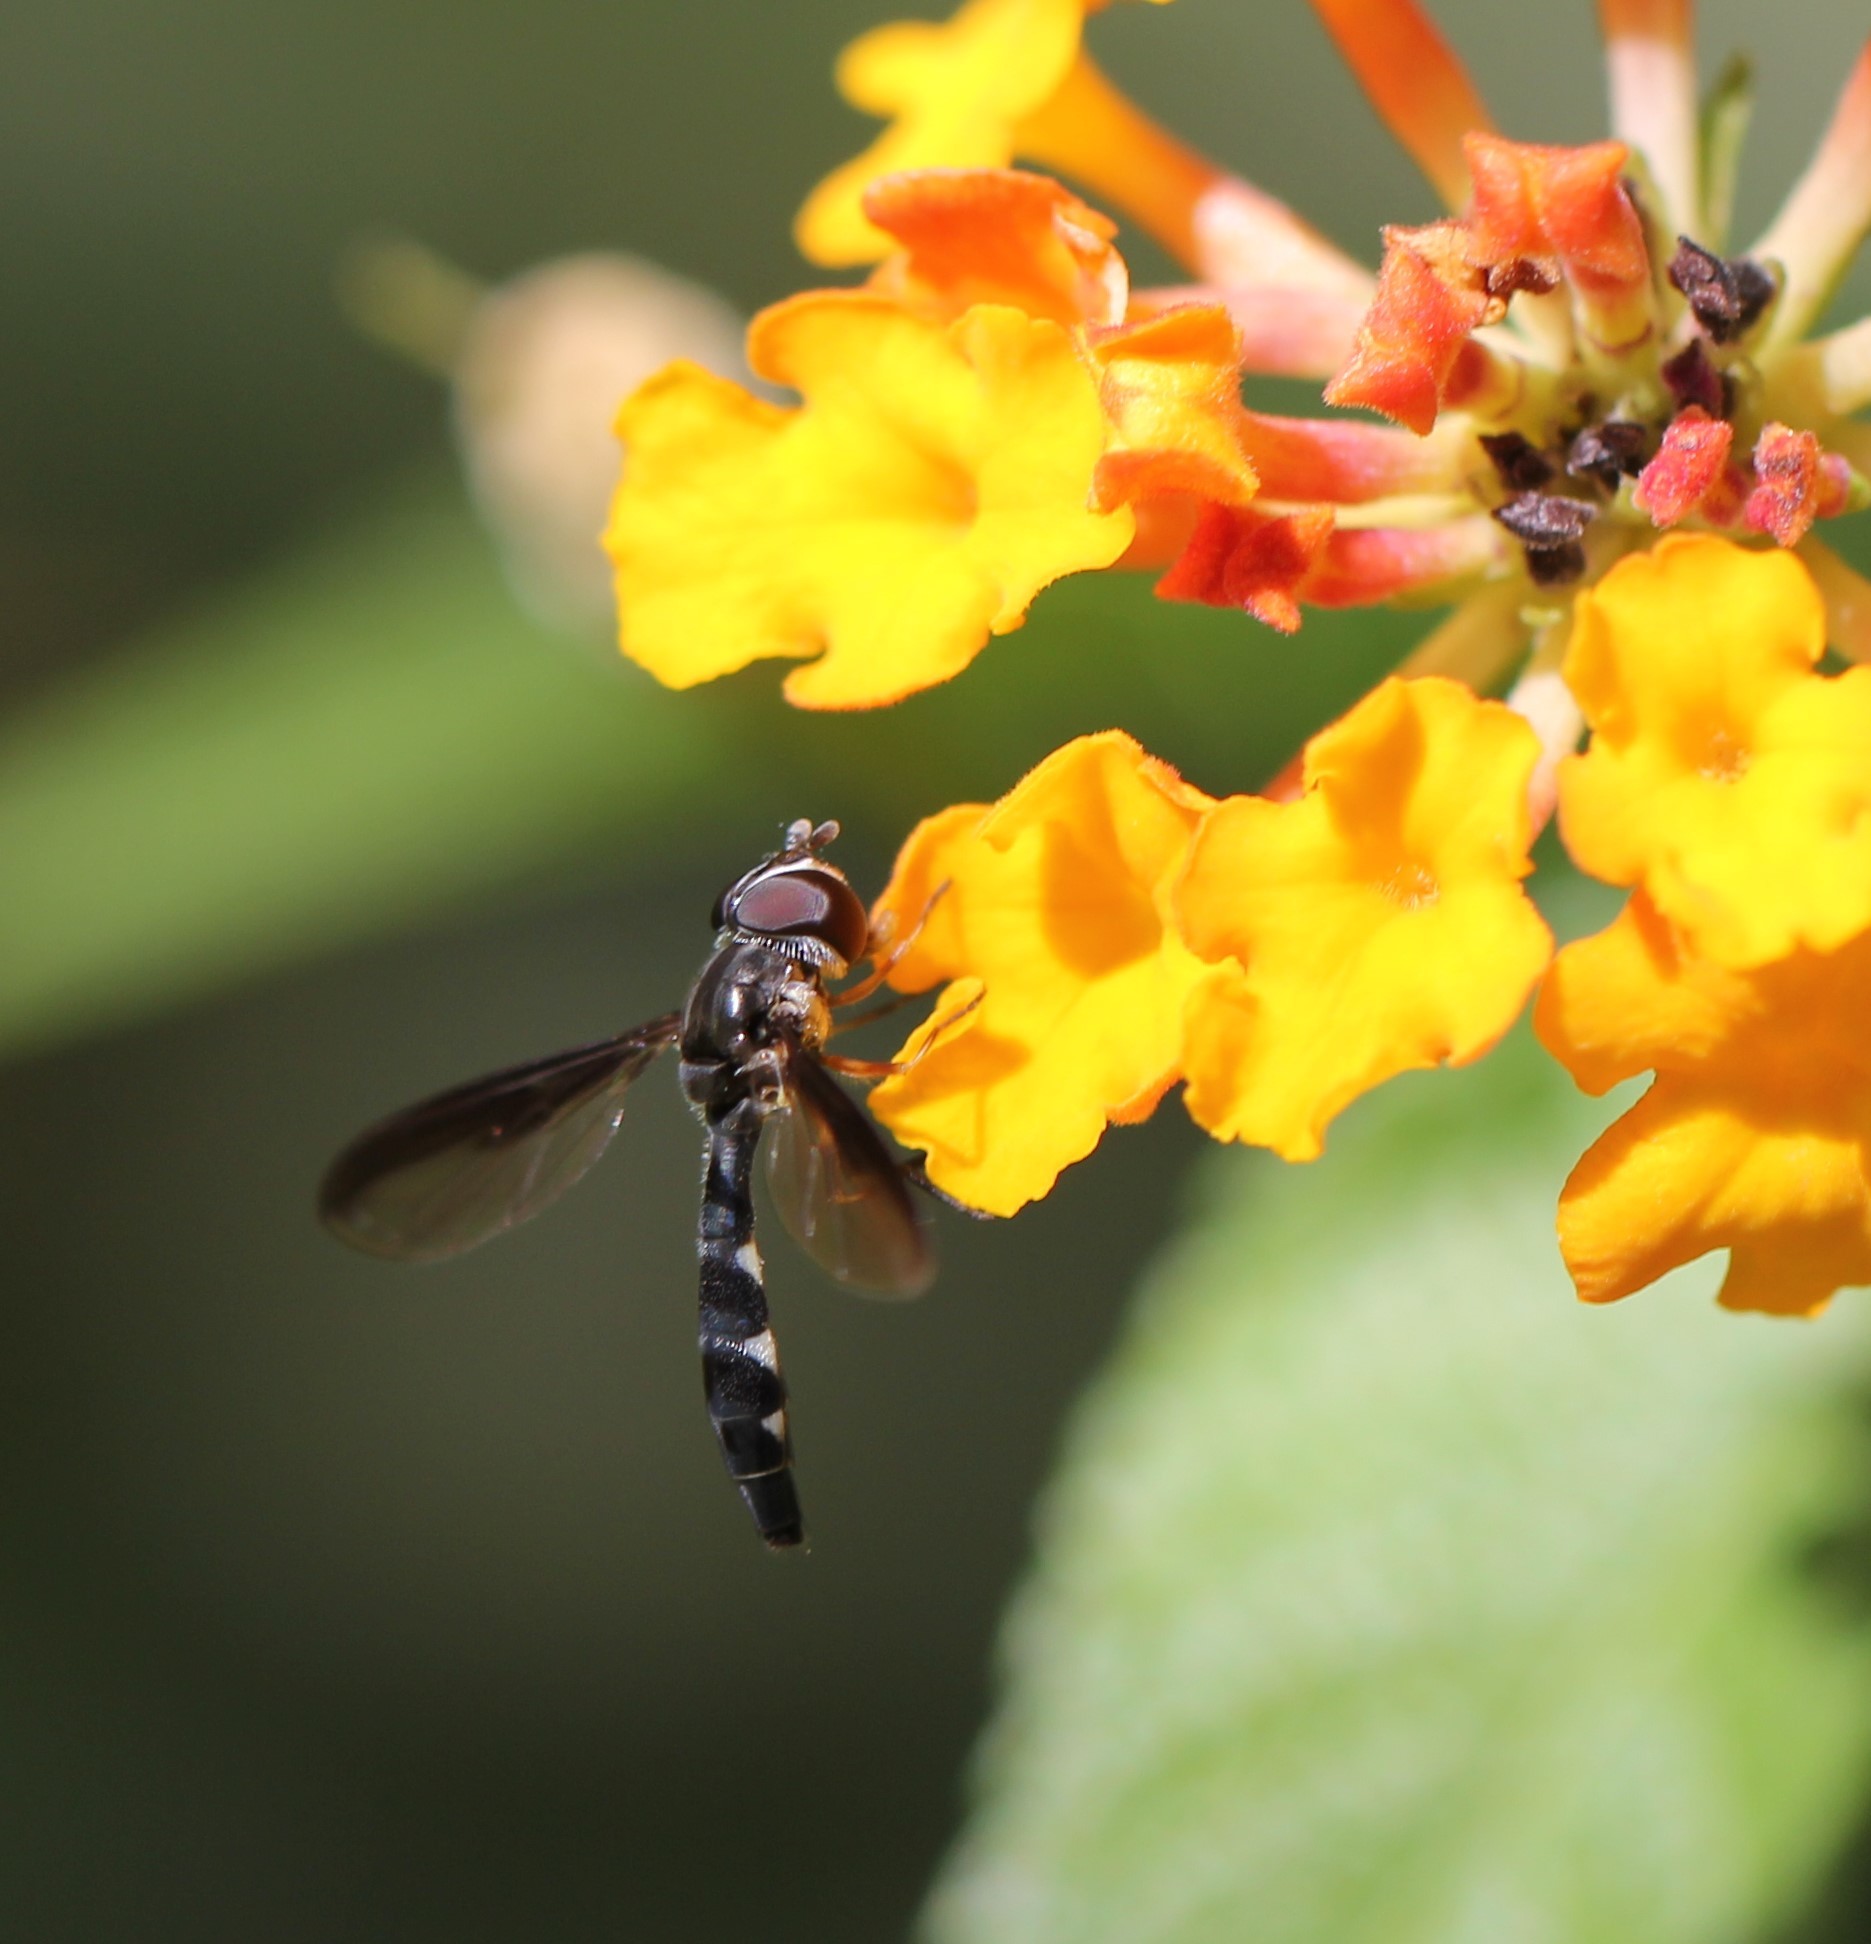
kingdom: Animalia
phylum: Arthropoda
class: Insecta
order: Diptera
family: Syrphidae
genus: Ocyptamus
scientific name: Ocyptamus costatus
